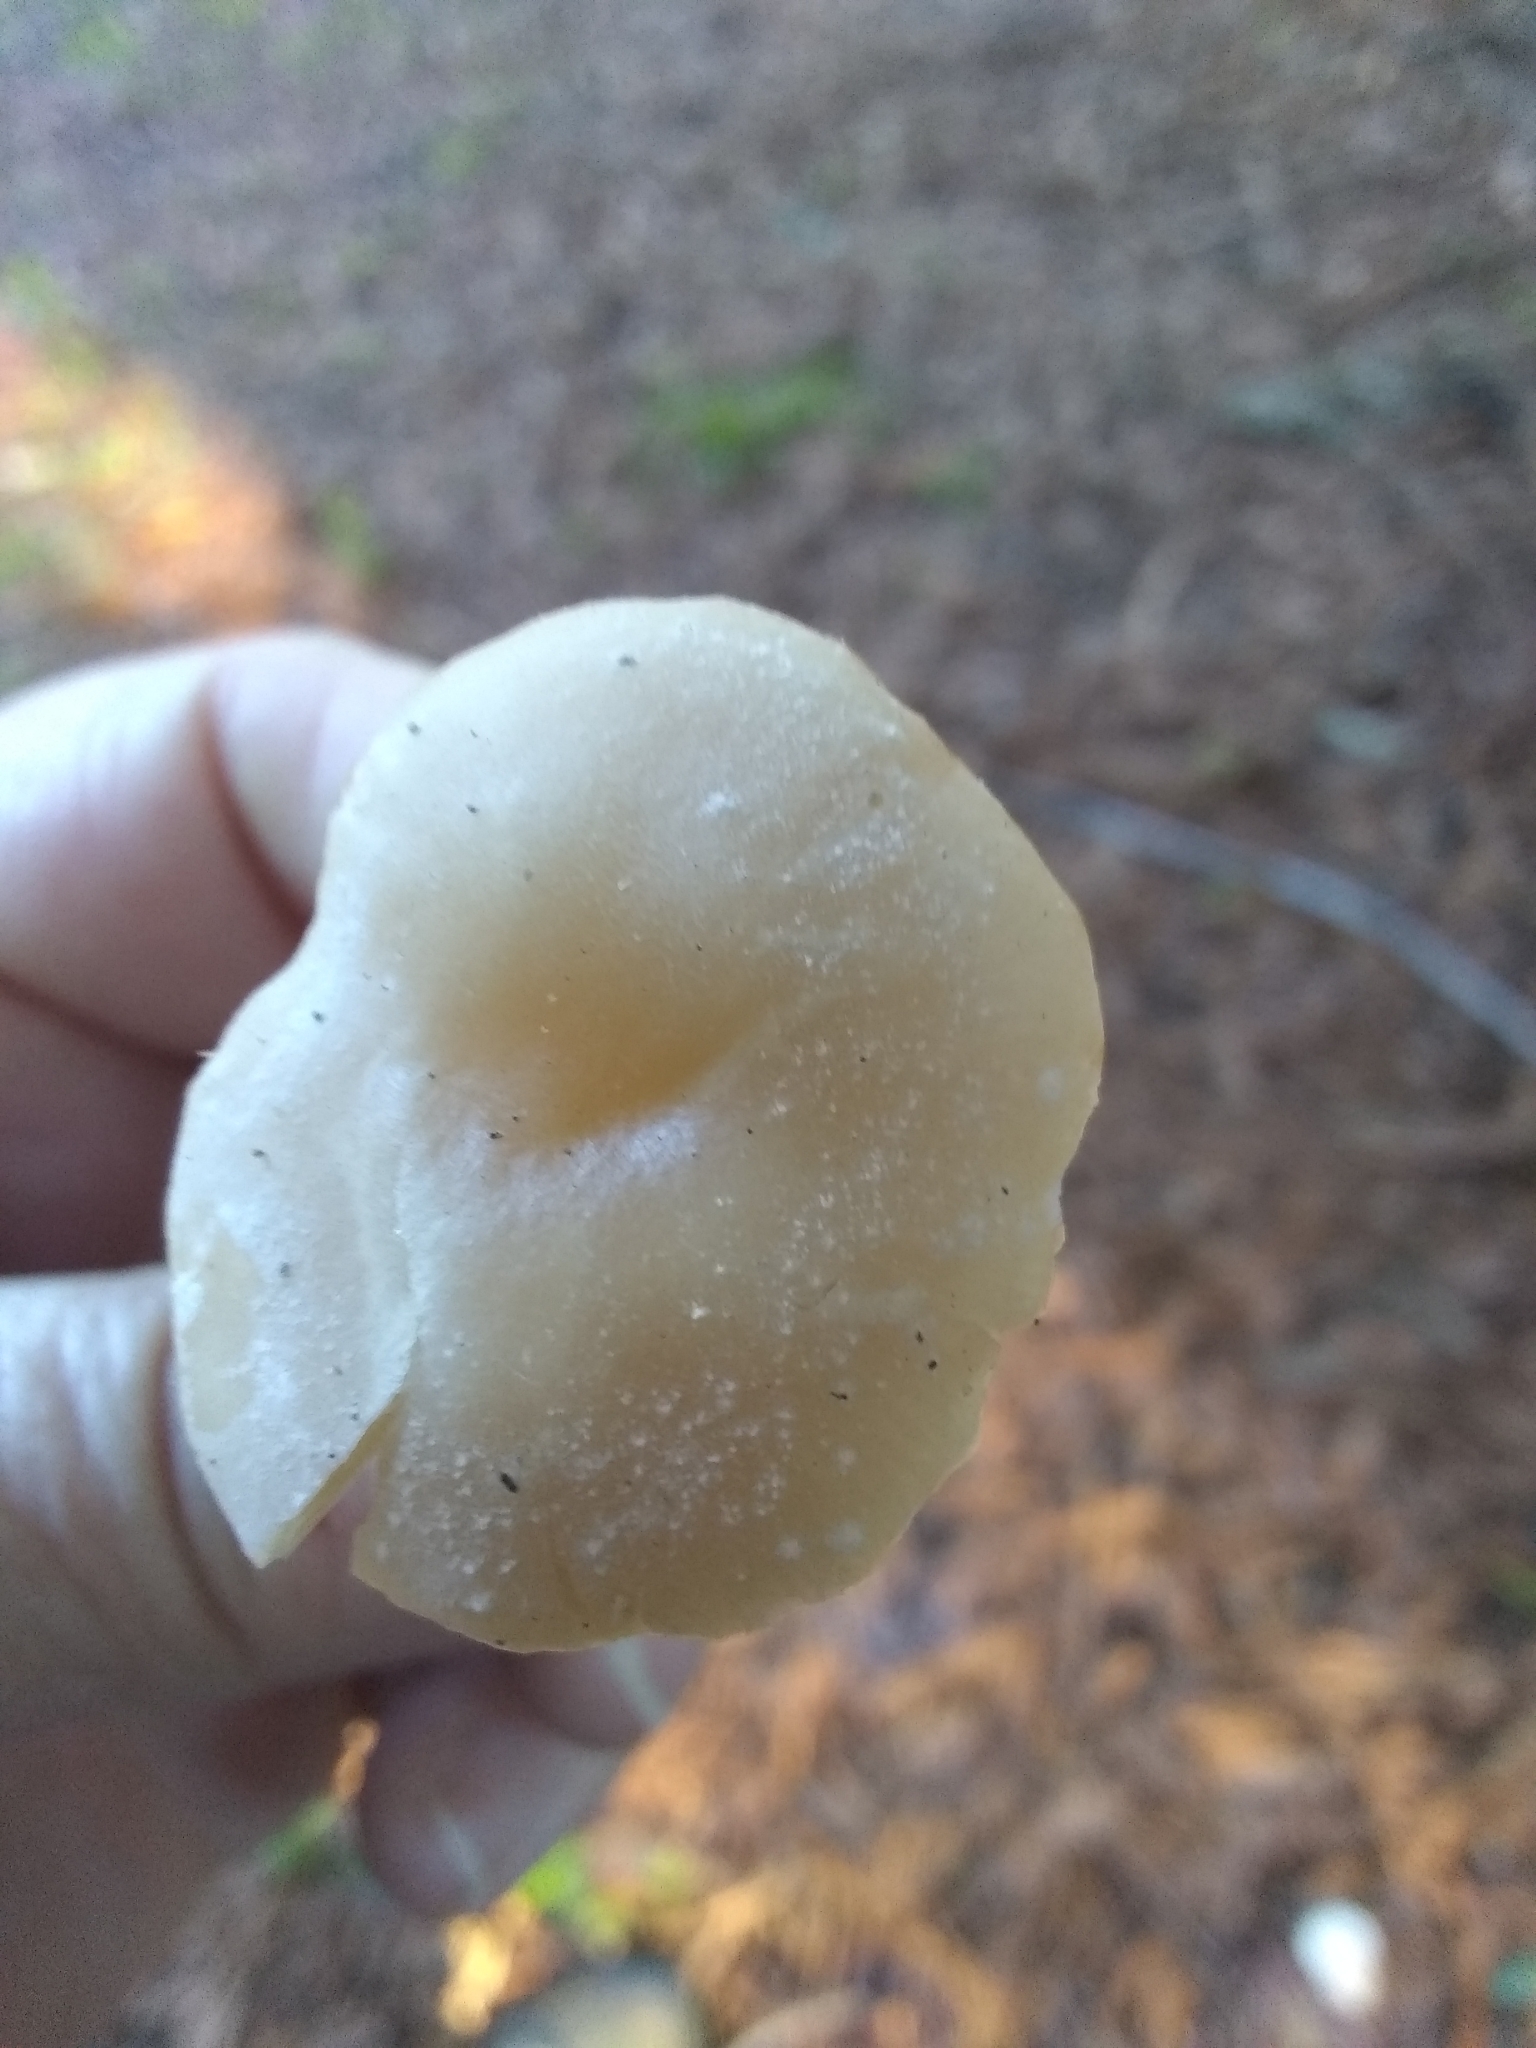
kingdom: Fungi
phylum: Basidiomycota
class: Agaricomycetes
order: Agaricales
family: Tricholomataceae
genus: Clitocybe
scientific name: Clitocybe fragrans
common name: Fragrant funnel
